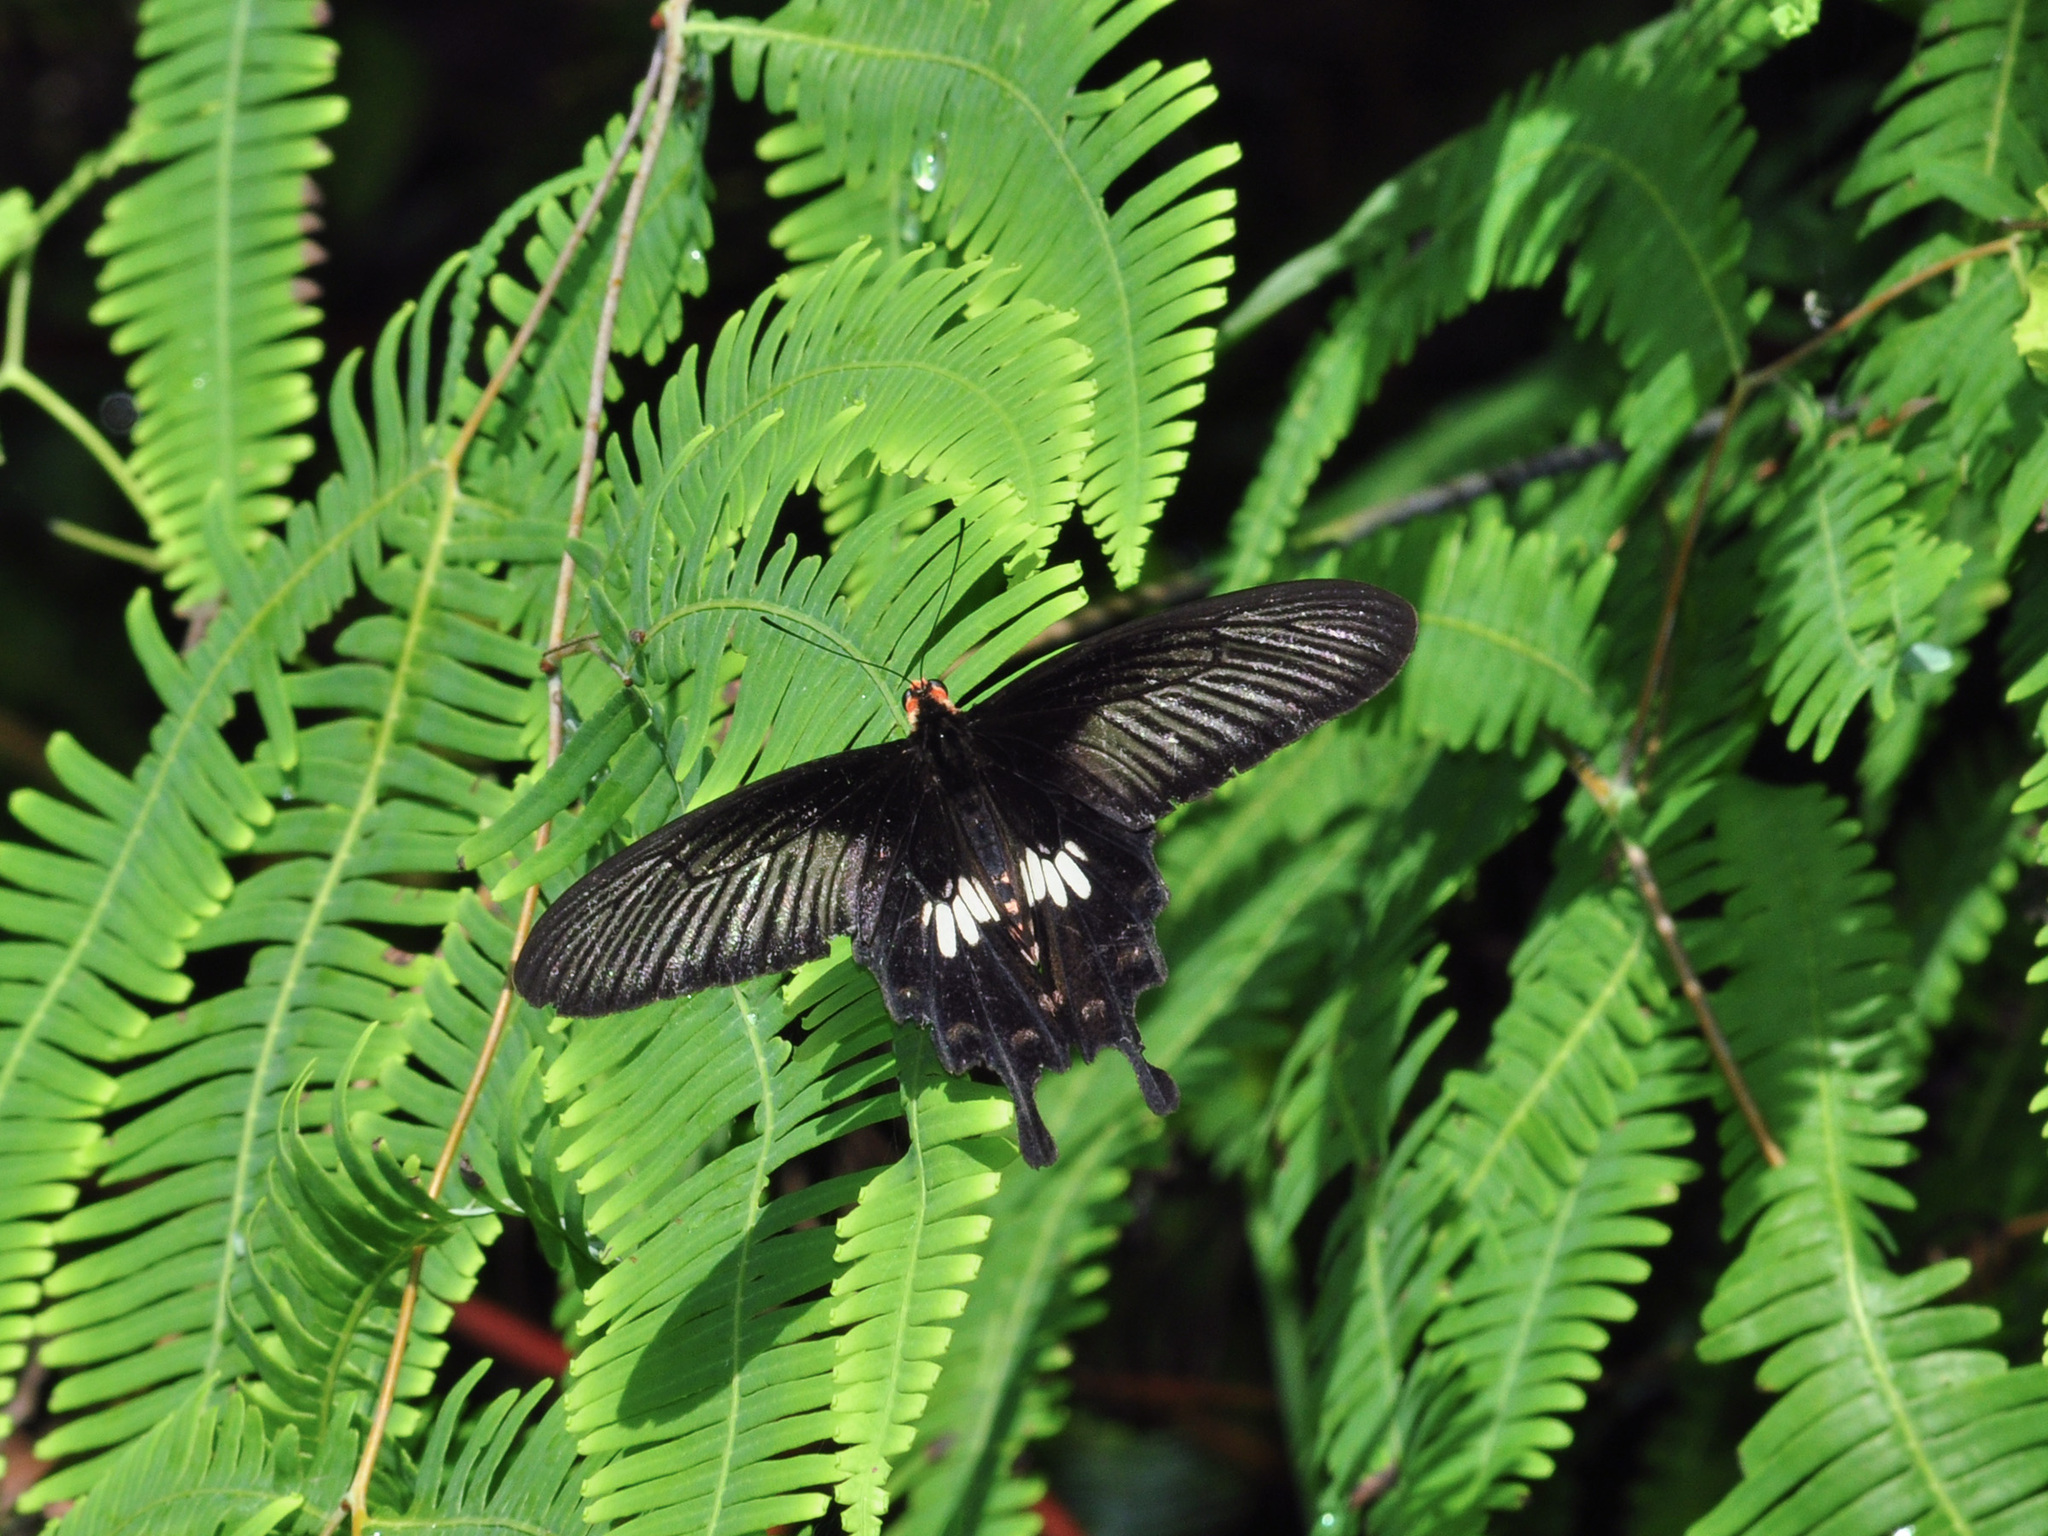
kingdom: Animalia
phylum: Arthropoda
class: Insecta
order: Lepidoptera
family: Papilionidae
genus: Pachliopta
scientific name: Pachliopta aristolochiae
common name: Common rose
